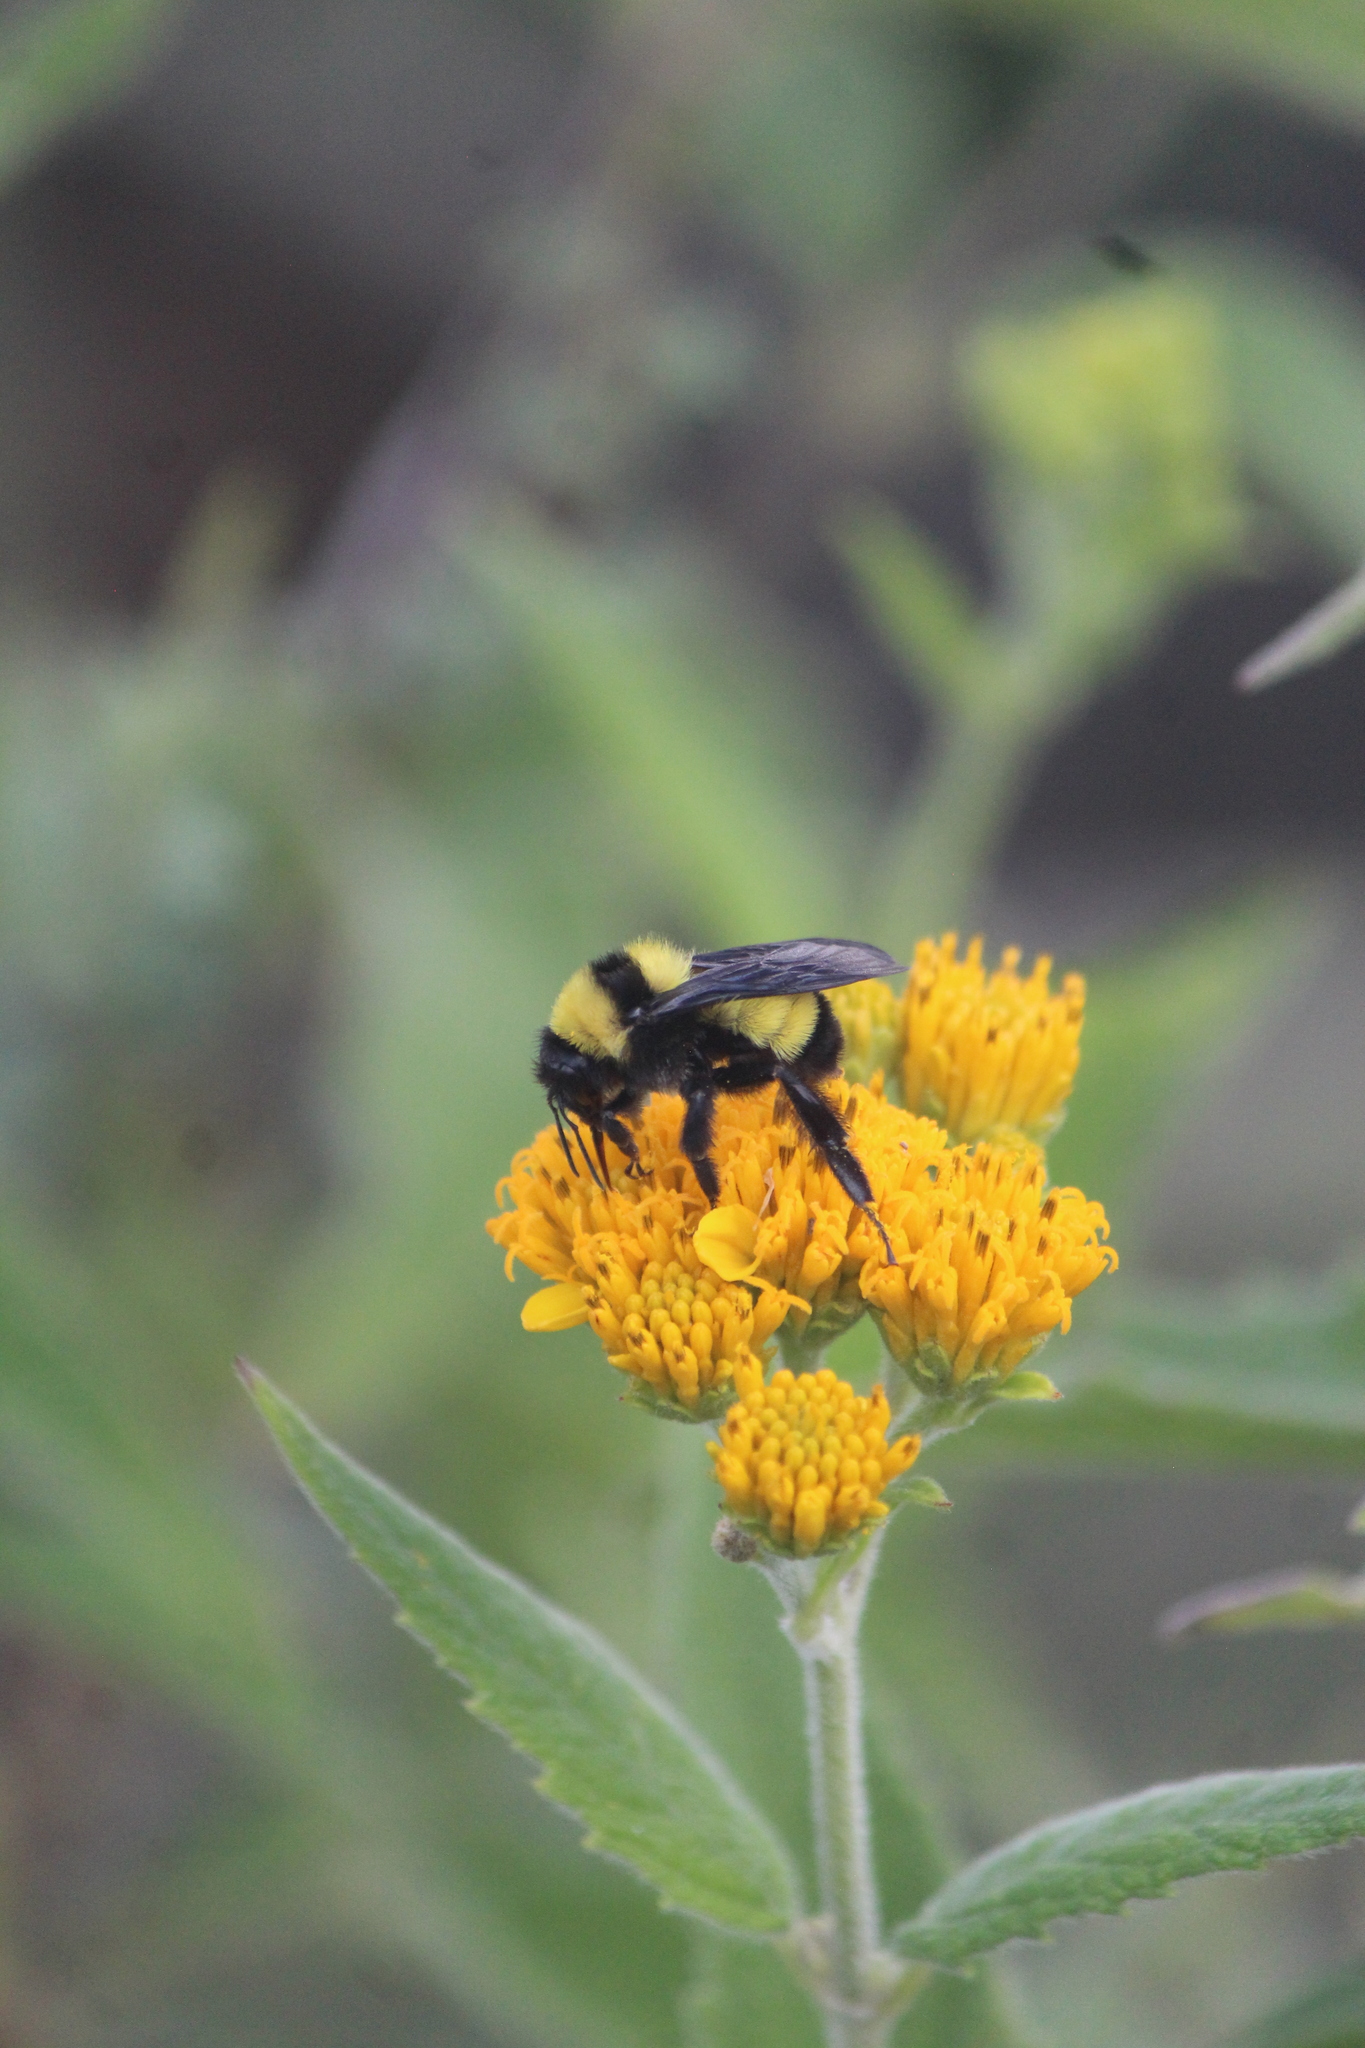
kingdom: Animalia
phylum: Arthropoda
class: Insecta
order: Hymenoptera
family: Apidae
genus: Bombus
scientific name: Bombus sonorus
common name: Sonoran bumble bee
